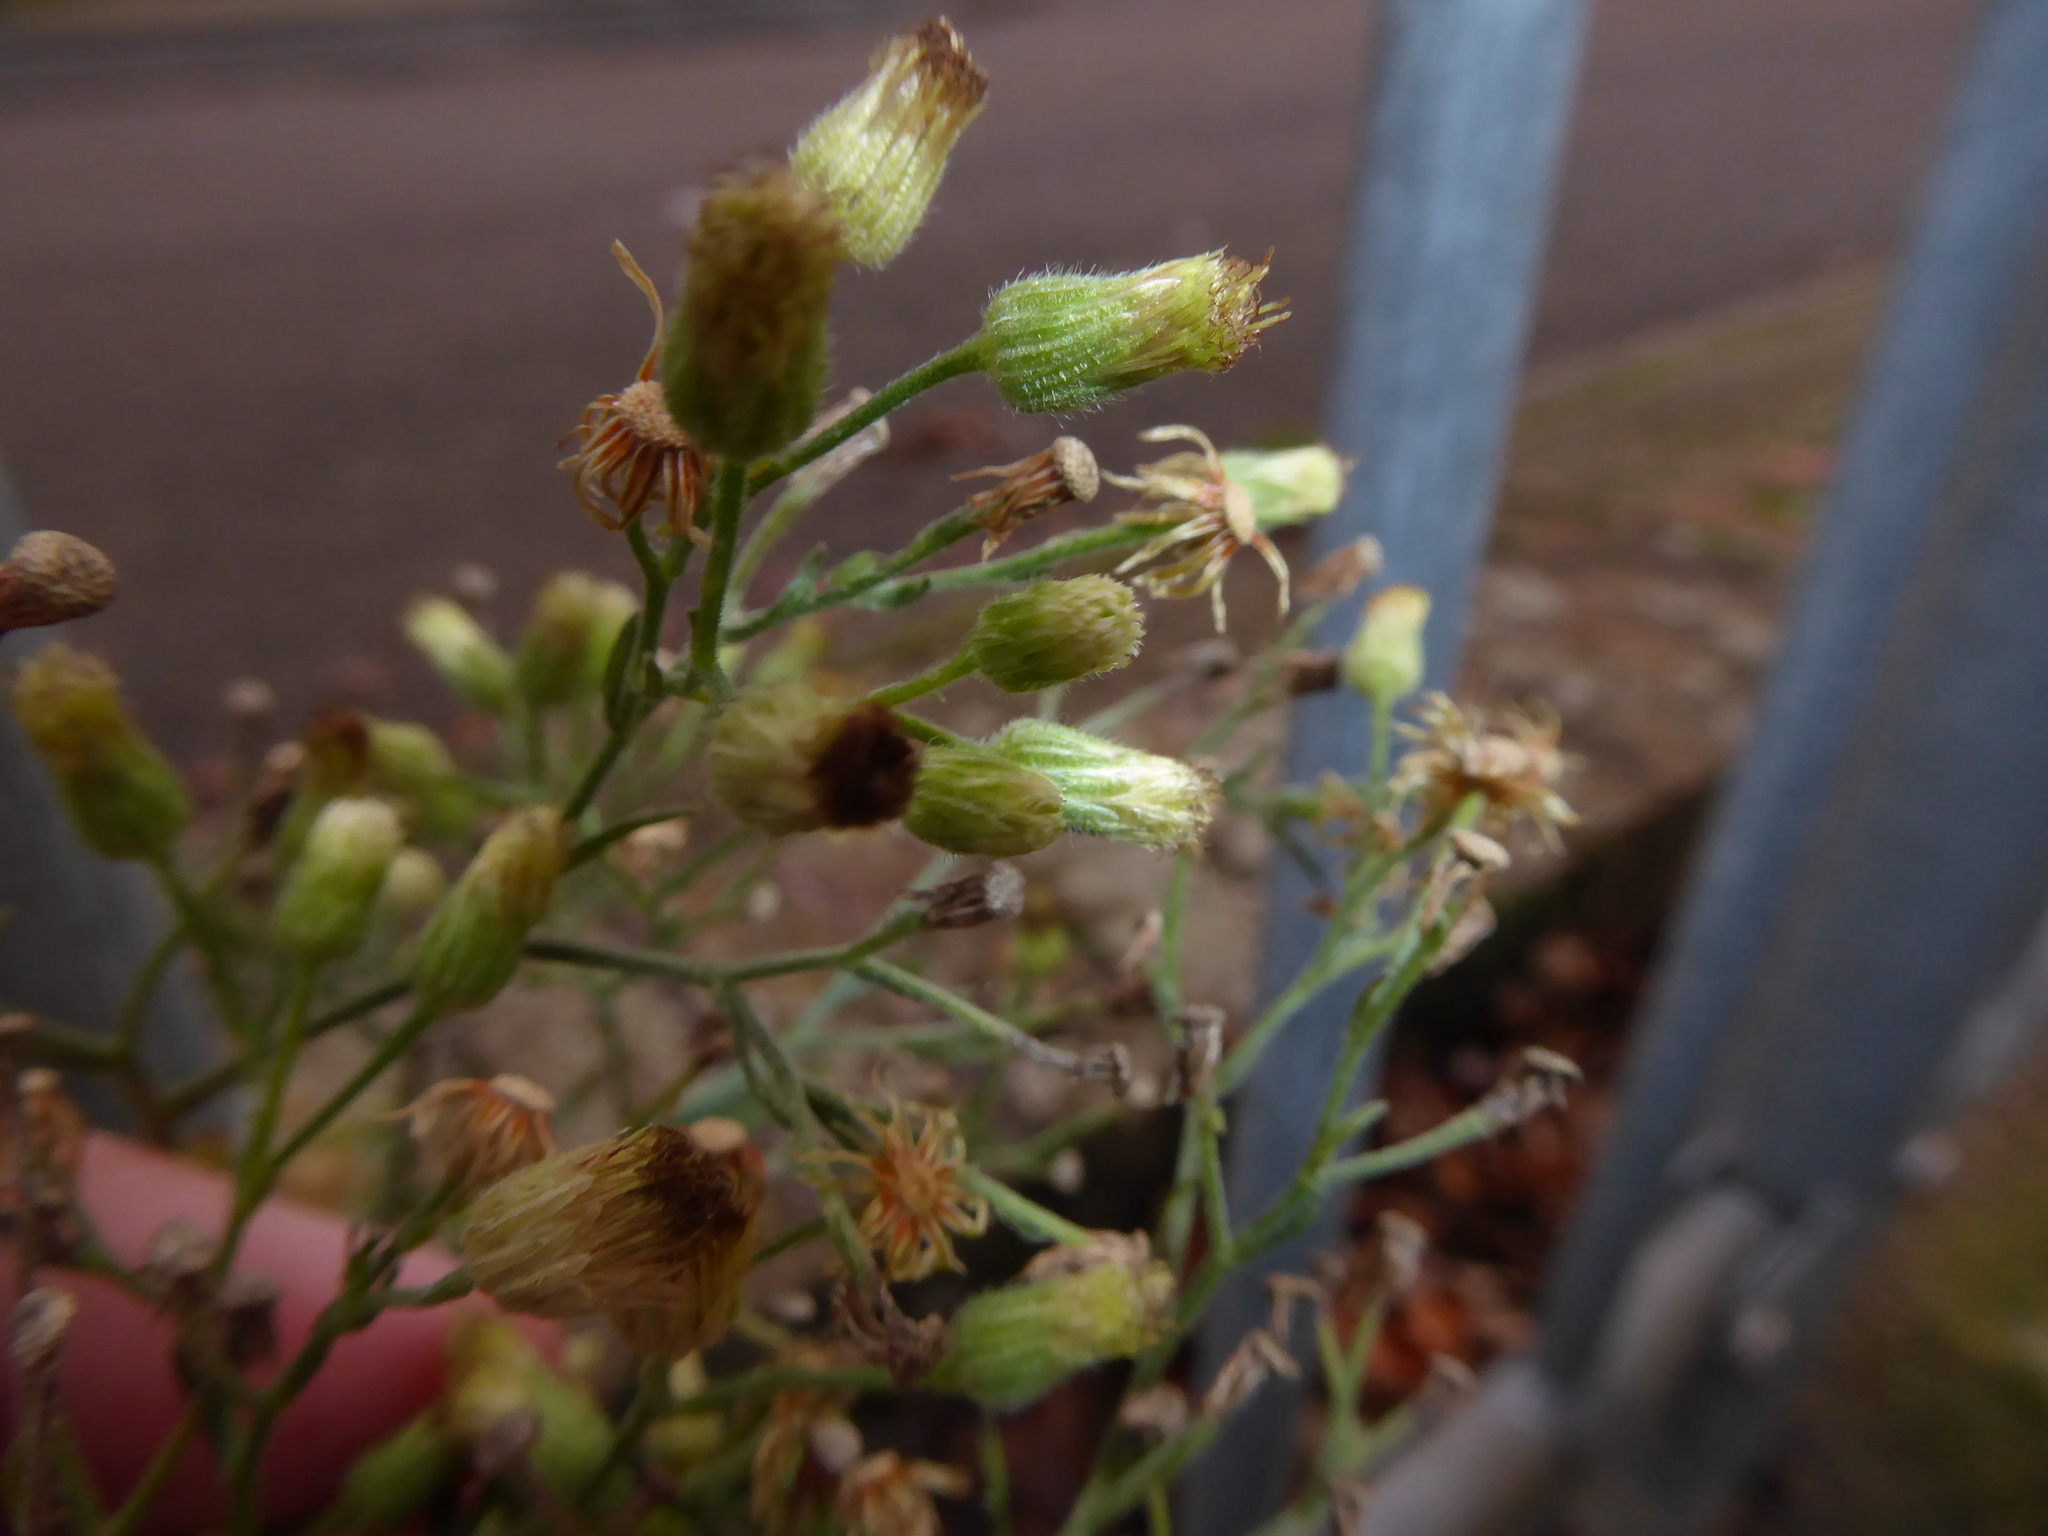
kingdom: Plantae
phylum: Tracheophyta
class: Magnoliopsida
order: Asterales
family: Asteraceae
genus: Erigeron
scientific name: Erigeron sumatrensis
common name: Daisy
